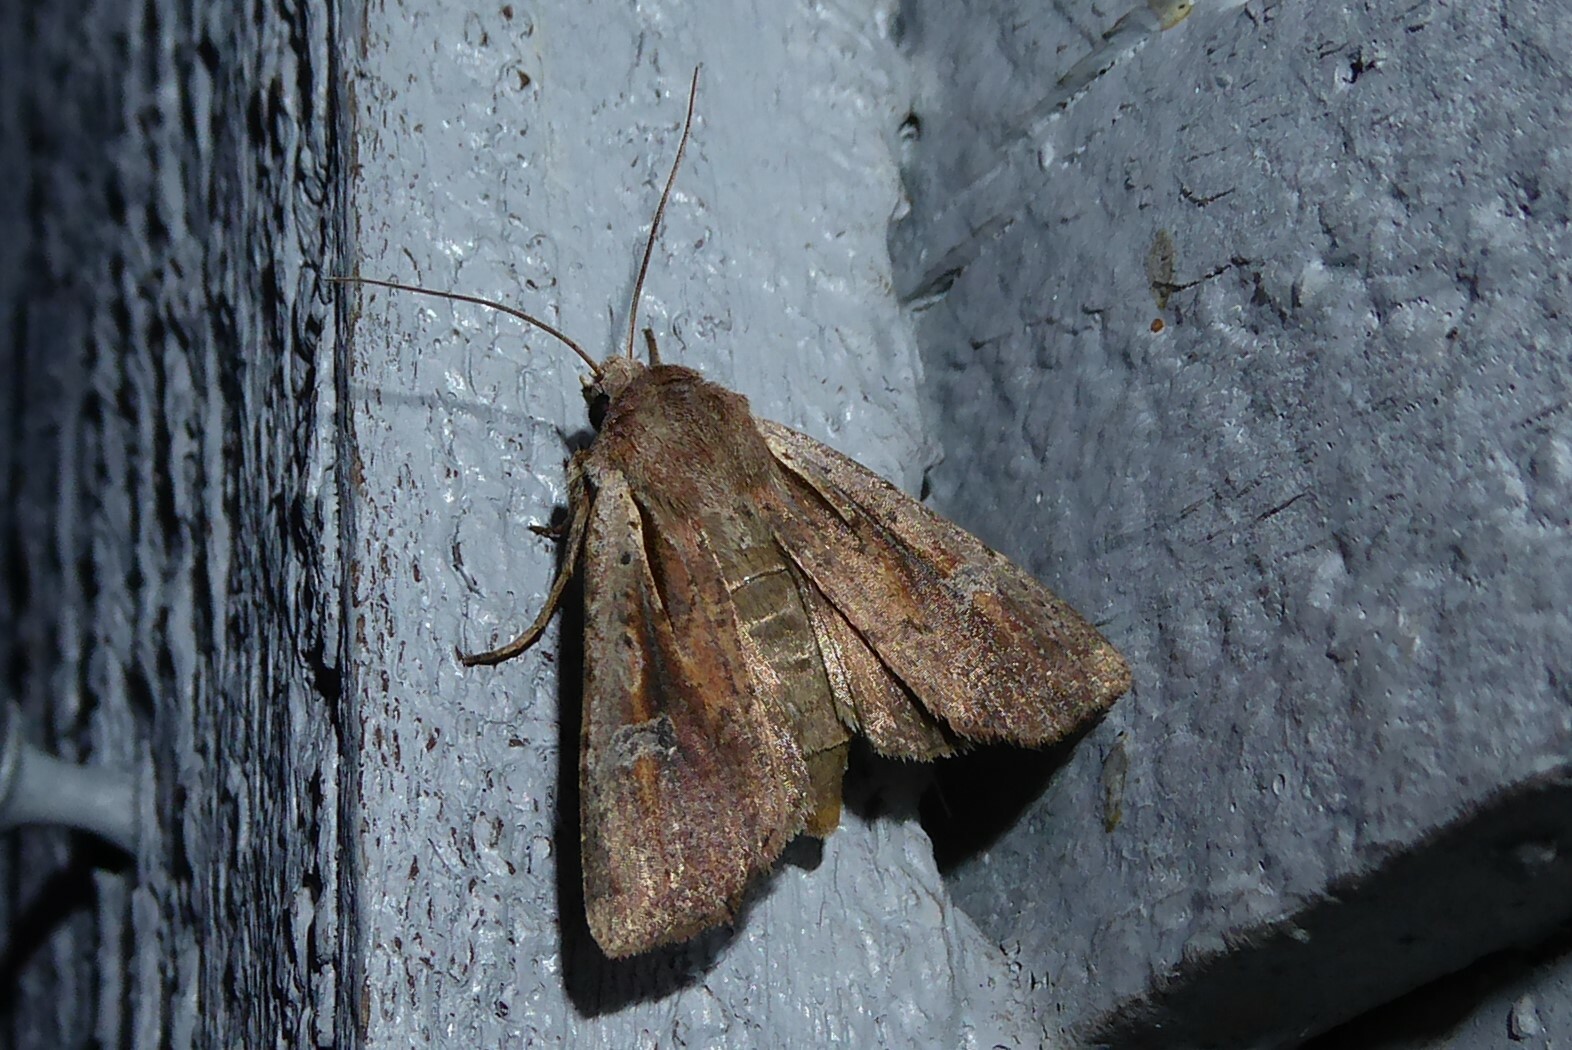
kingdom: Animalia
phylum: Arthropoda
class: Insecta
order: Lepidoptera
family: Noctuidae
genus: Ichneutica
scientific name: Ichneutica atristriga
